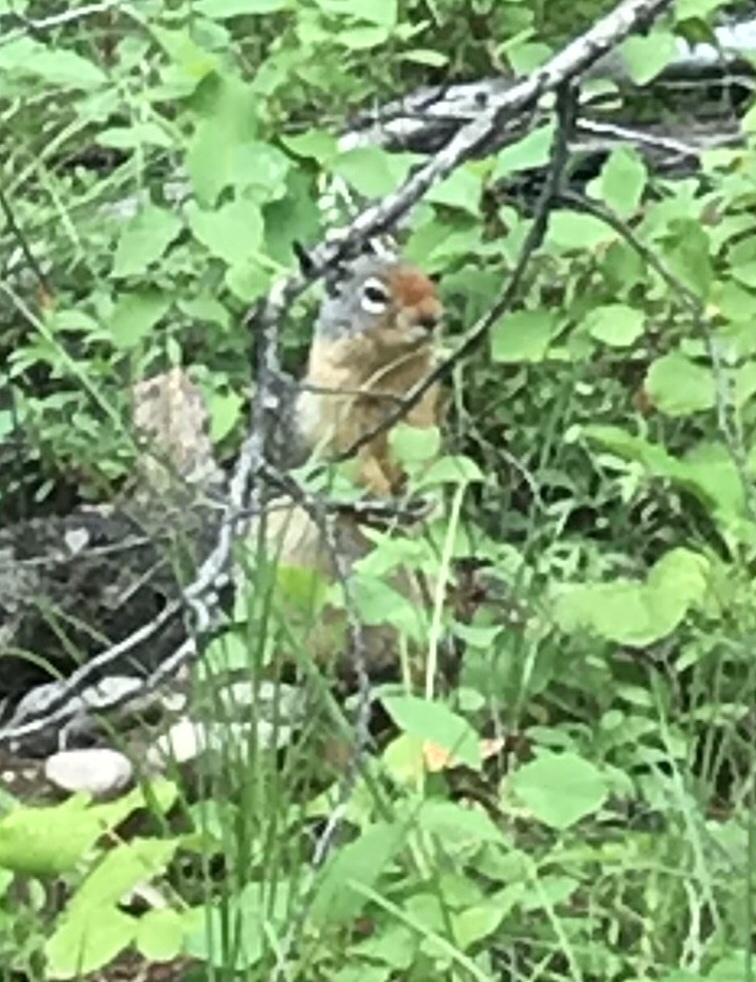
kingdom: Animalia
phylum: Chordata
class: Mammalia
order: Rodentia
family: Sciuridae
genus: Urocitellus
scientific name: Urocitellus columbianus
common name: Columbian ground squirrel
